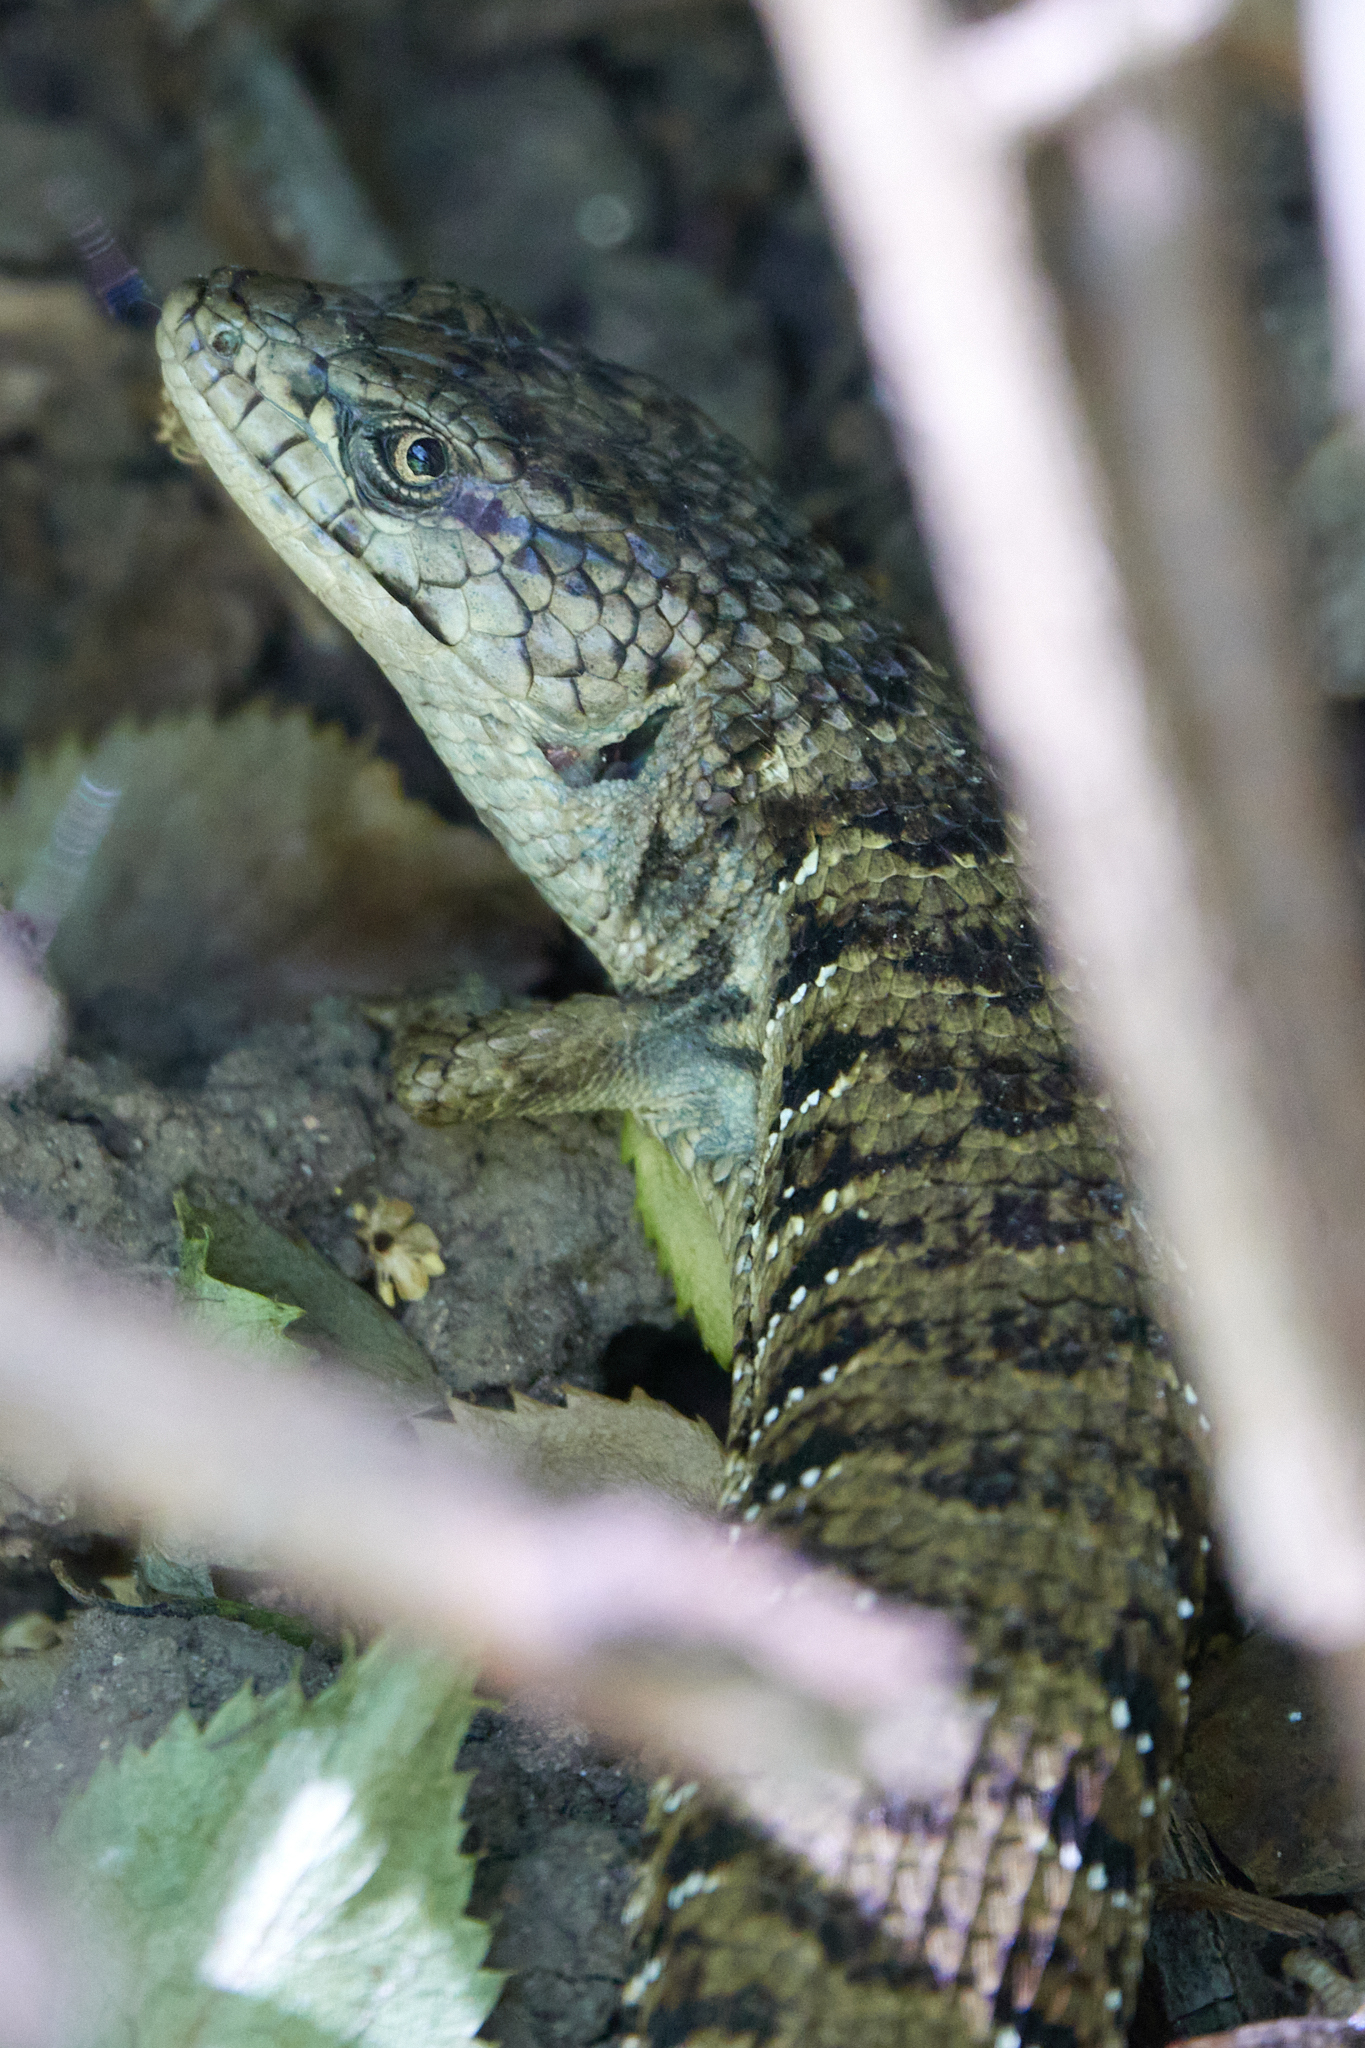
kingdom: Animalia
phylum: Chordata
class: Squamata
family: Anguidae
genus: Elgaria
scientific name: Elgaria multicarinata
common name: Southern alligator lizard
